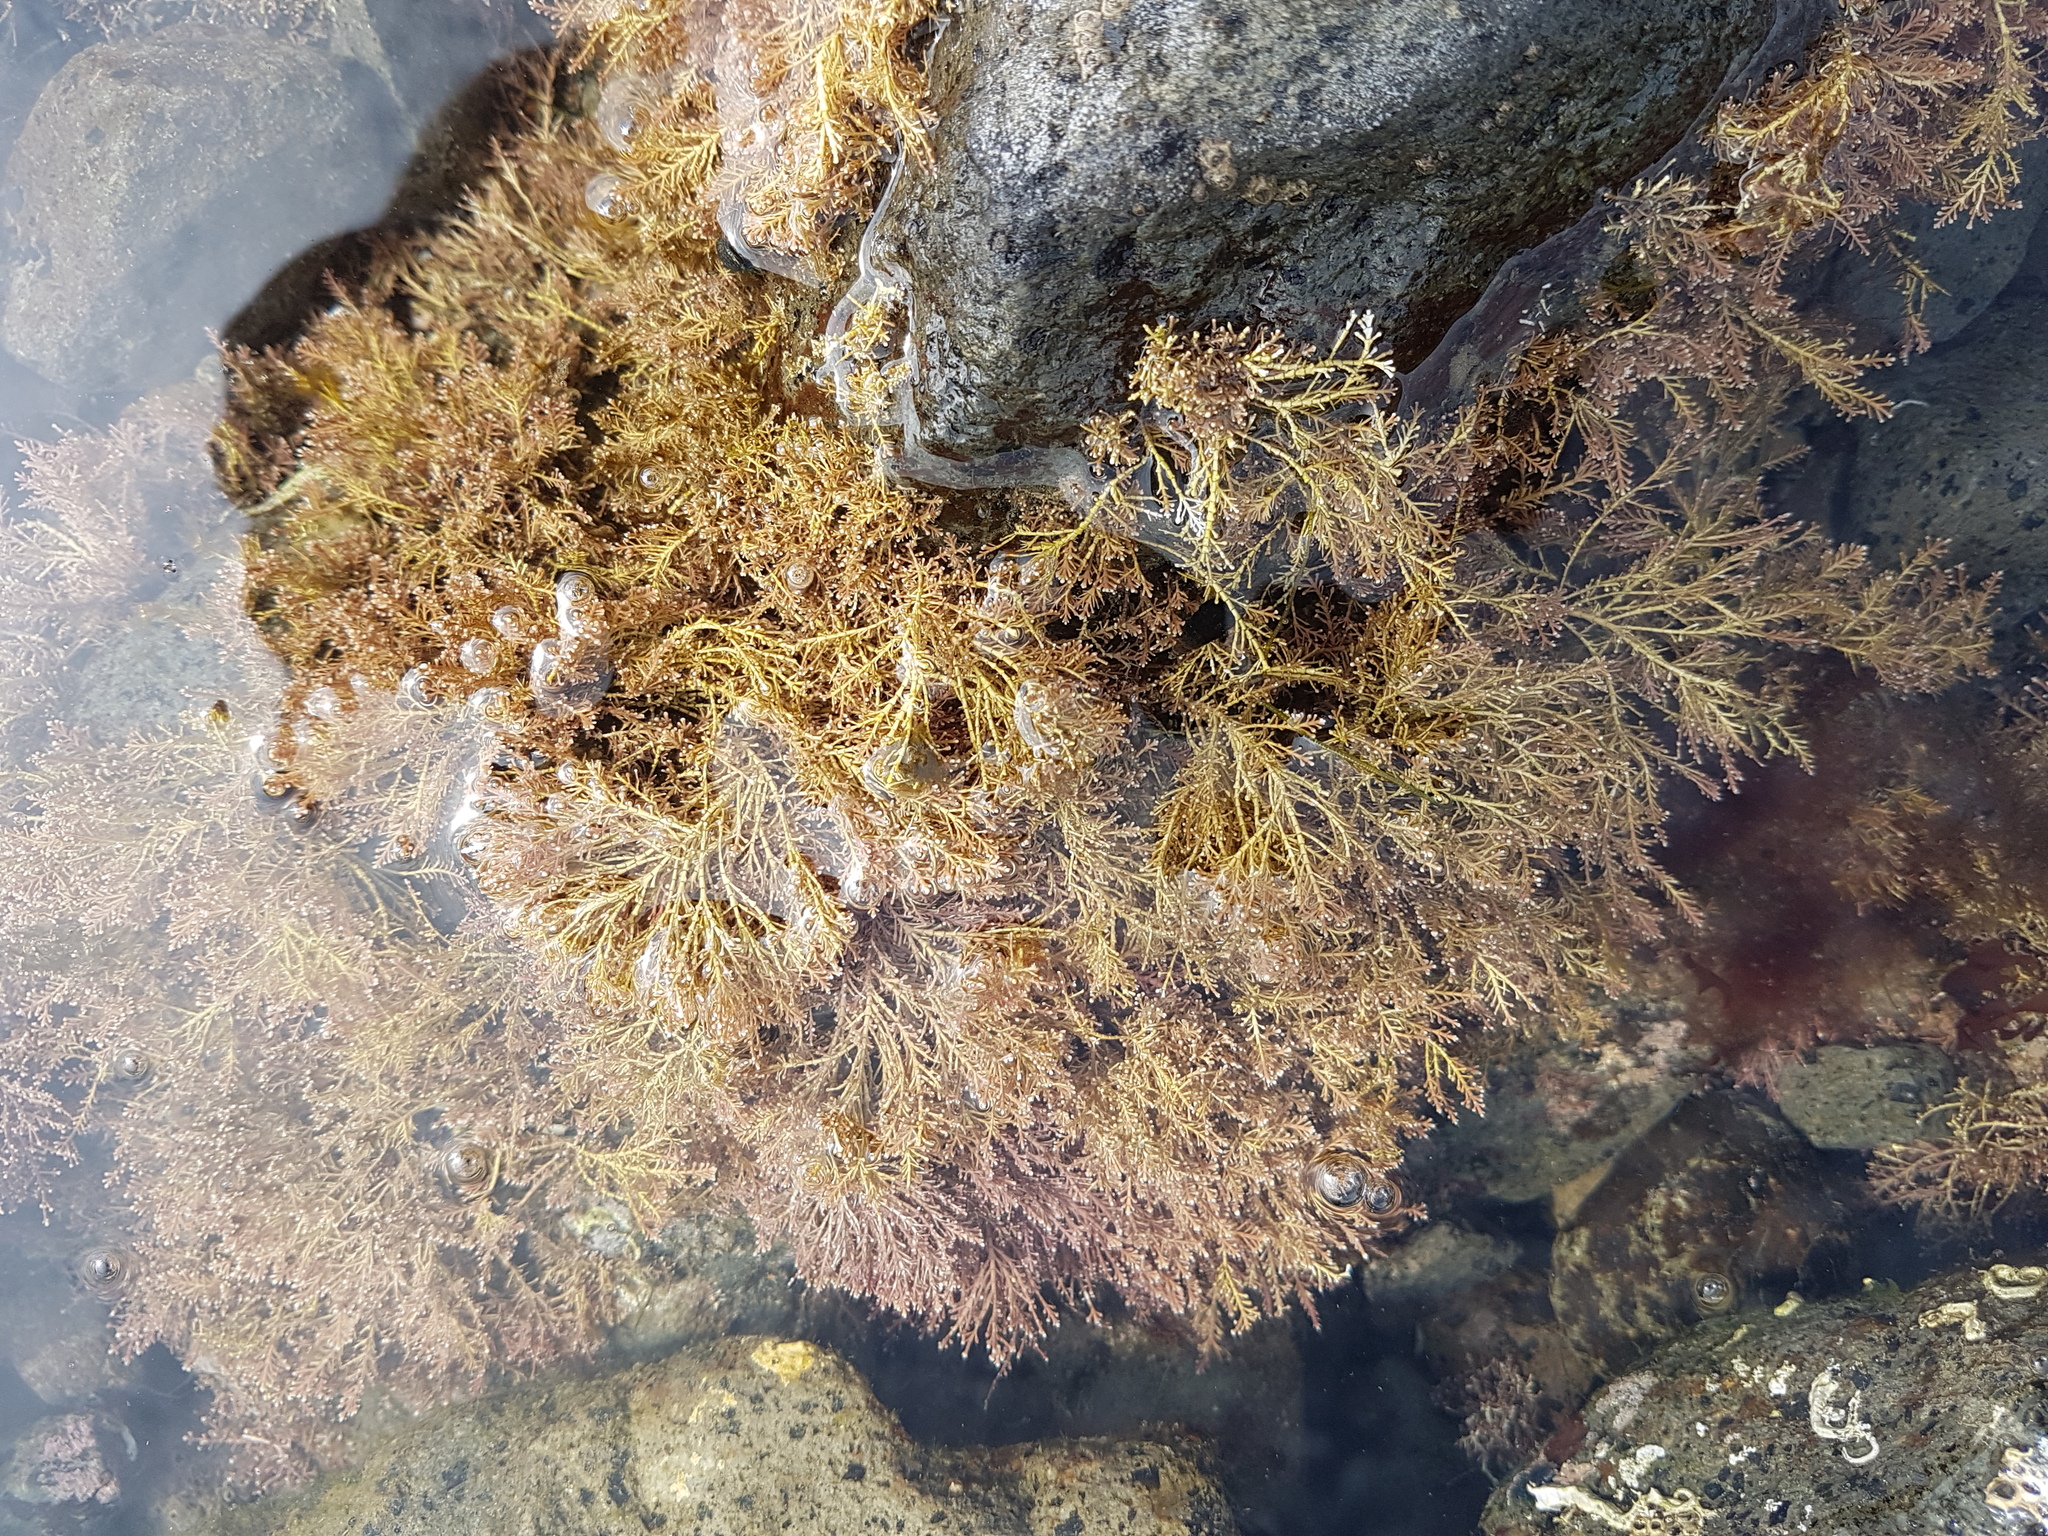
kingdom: Plantae
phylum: Rhodophyta
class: Florideophyceae
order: Corallinales
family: Corallinaceae
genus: Corallina
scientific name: Corallina officinalis
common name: Coral weed
